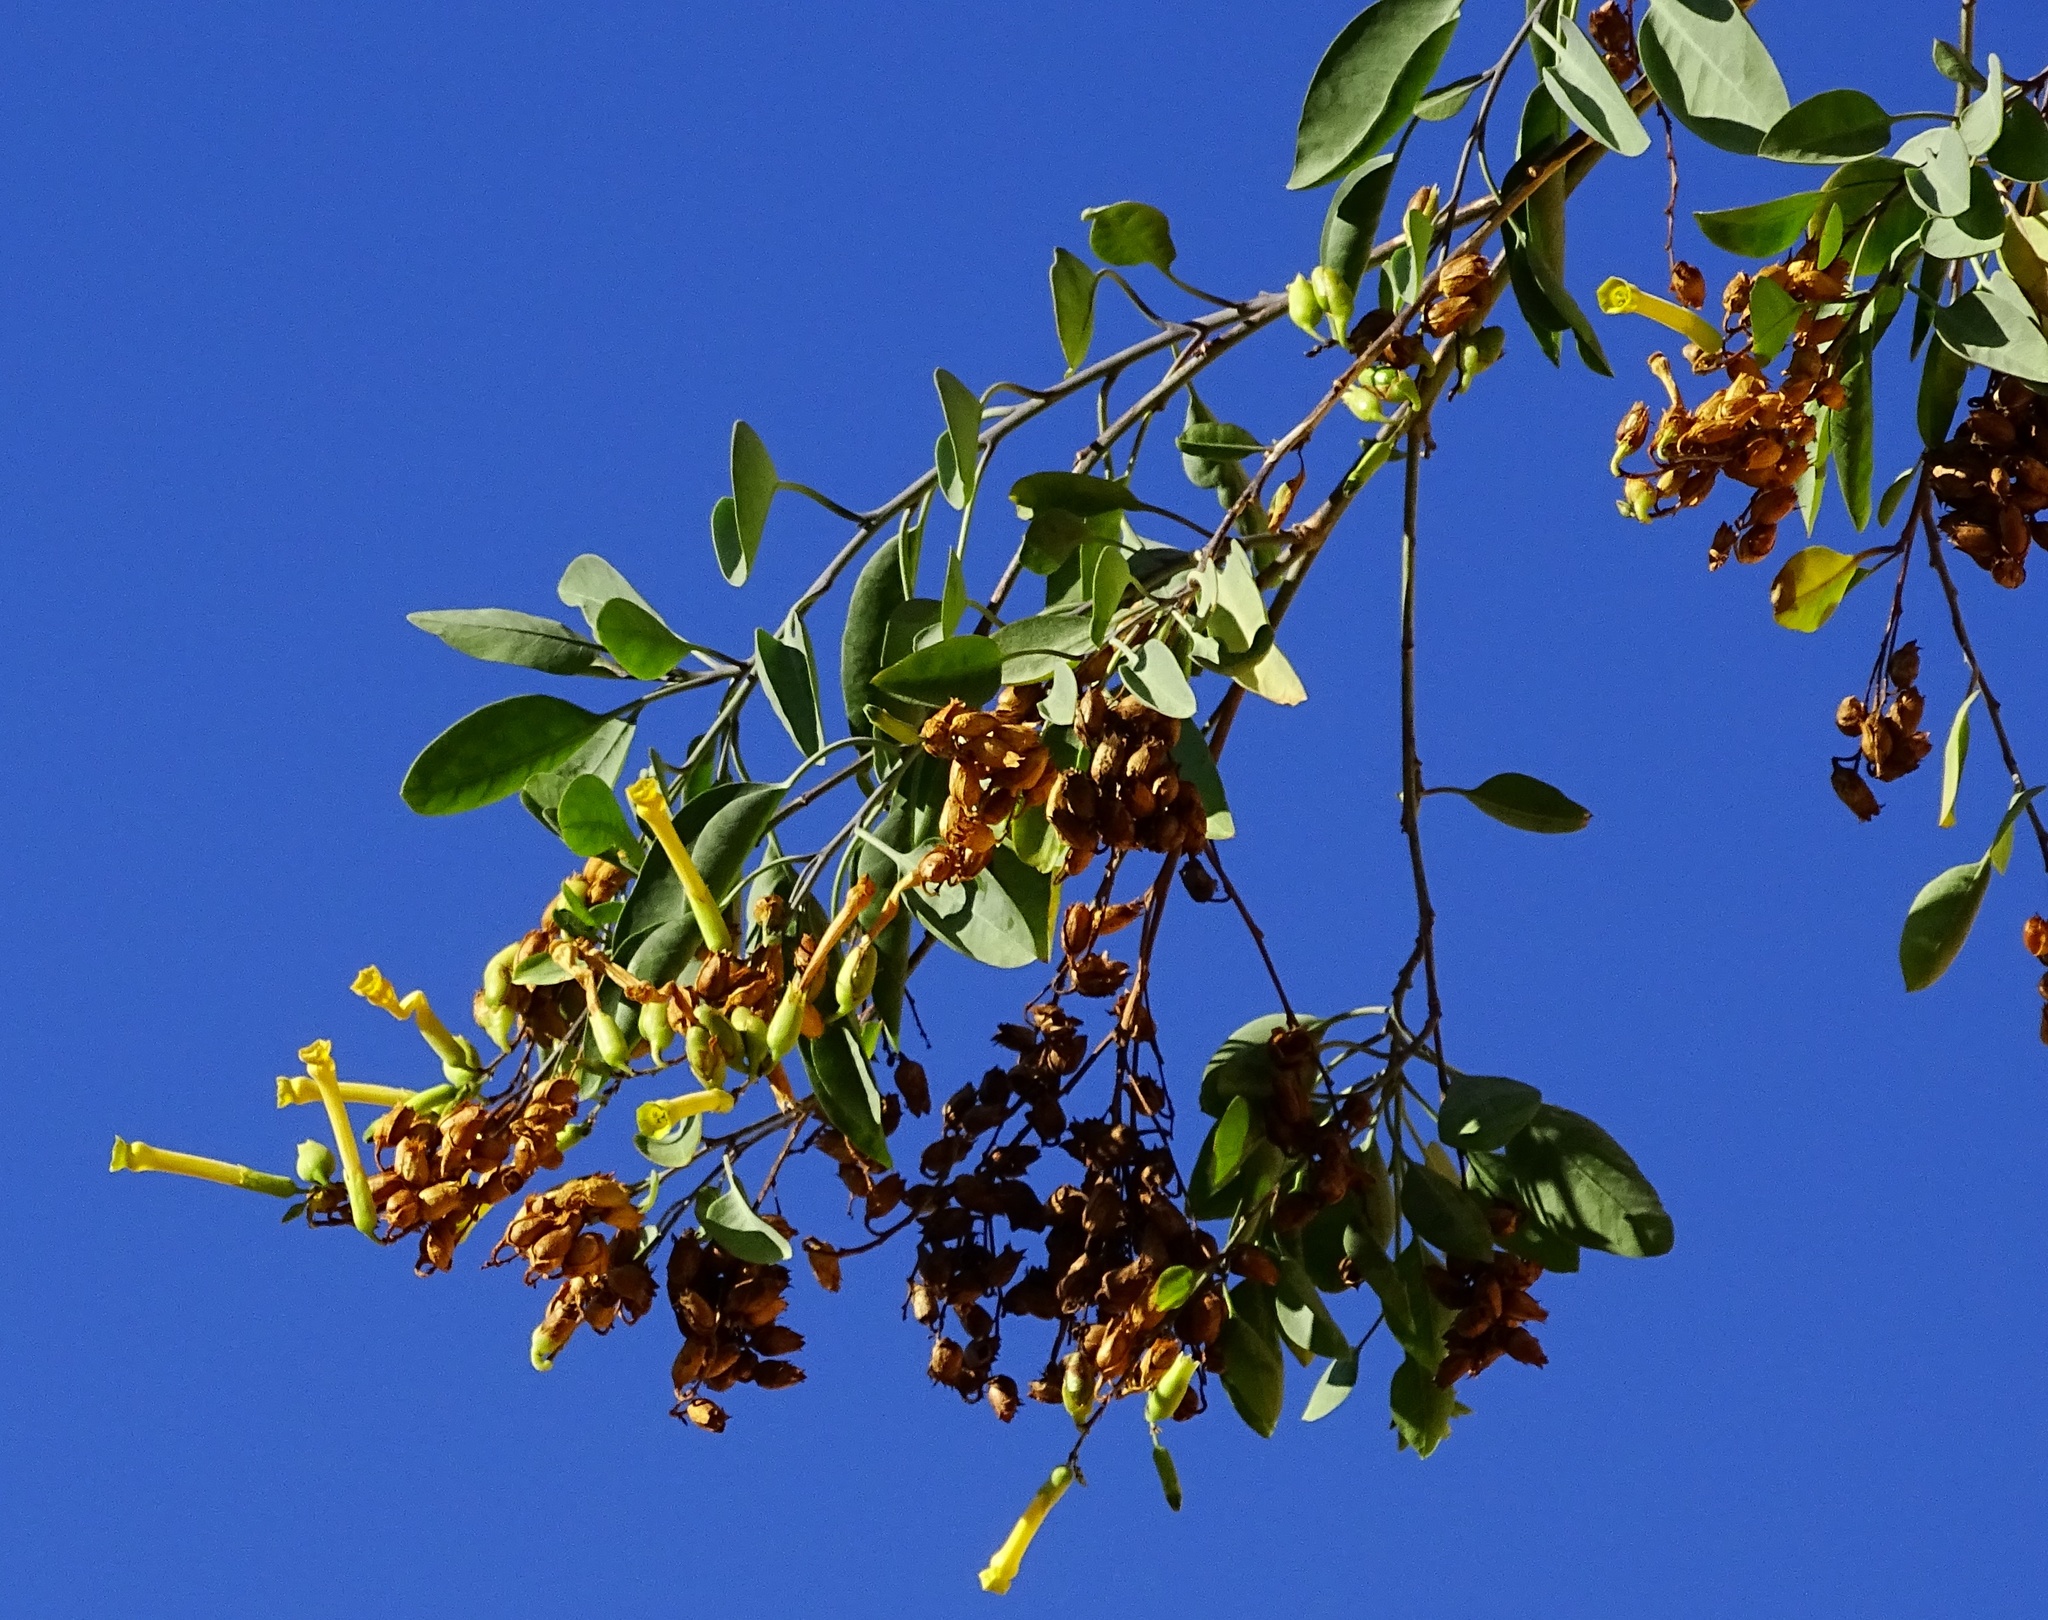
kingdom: Plantae
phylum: Tracheophyta
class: Magnoliopsida
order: Solanales
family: Solanaceae
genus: Nicotiana
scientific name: Nicotiana glauca
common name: Tree tobacco
